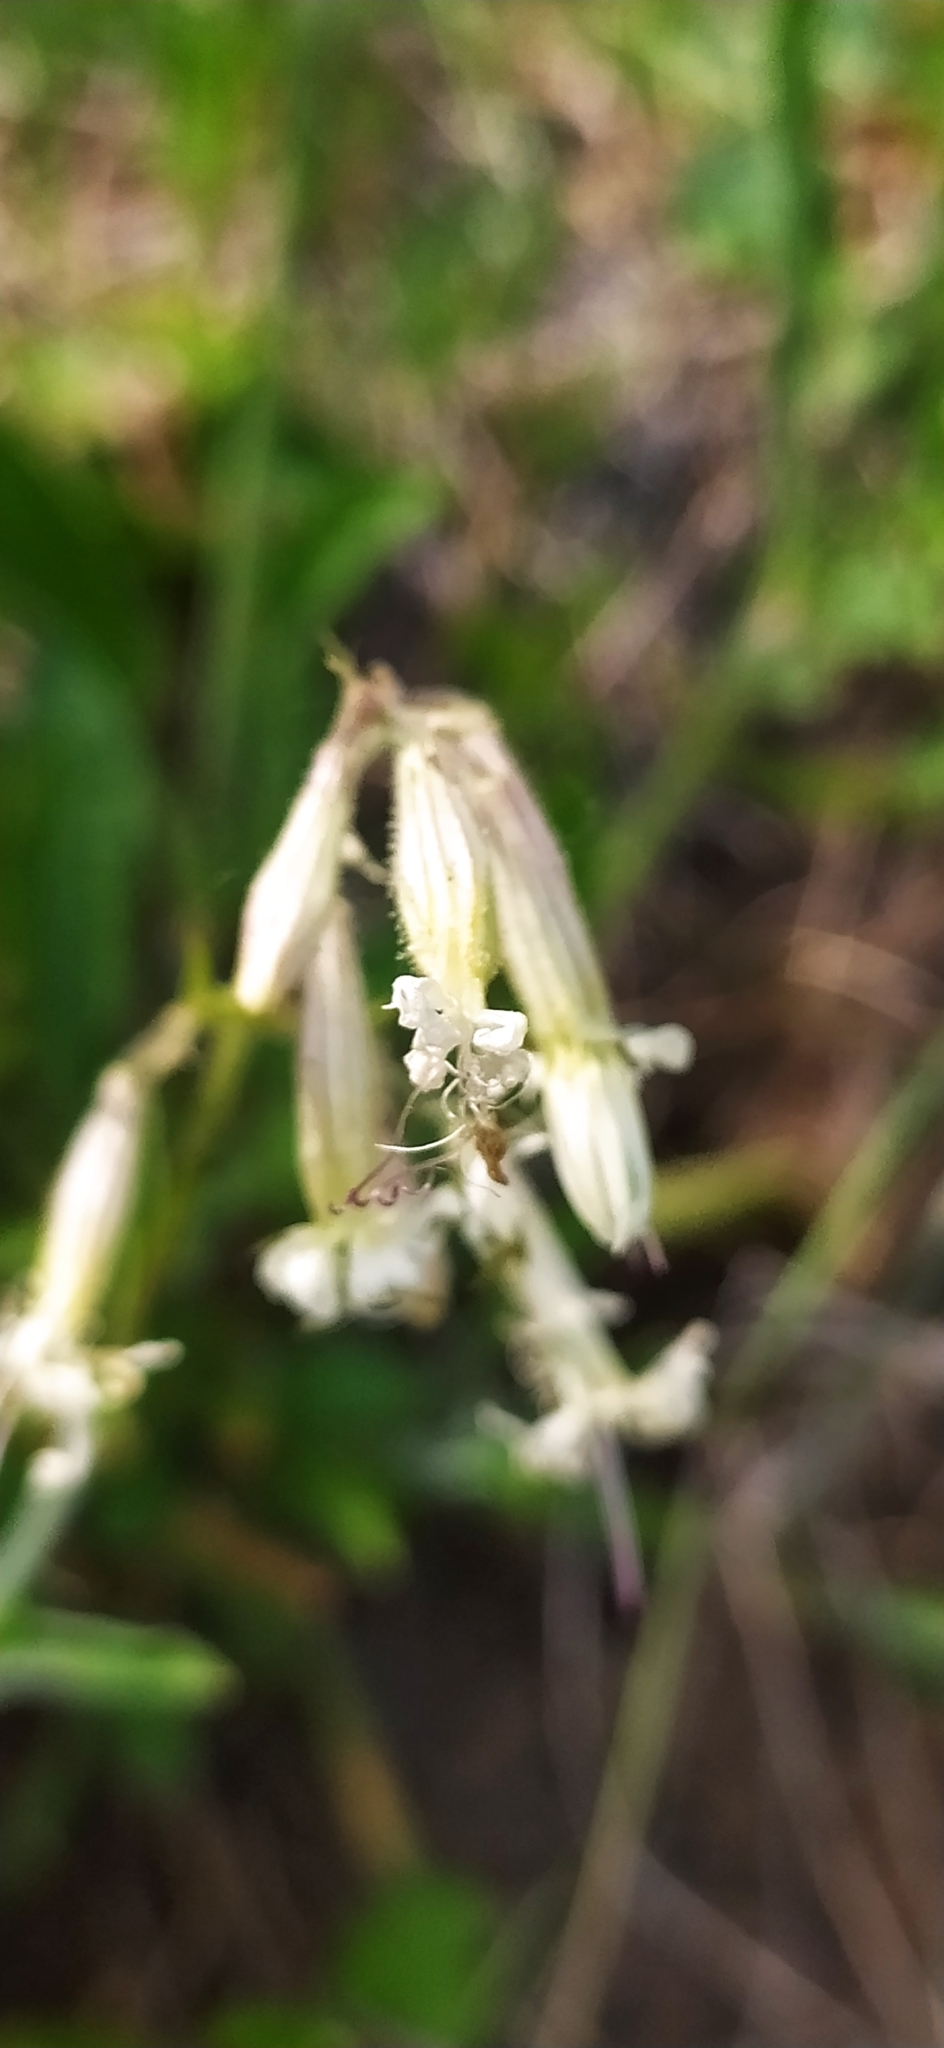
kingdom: Plantae
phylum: Tracheophyta
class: Magnoliopsida
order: Caryophyllales
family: Caryophyllaceae
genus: Silene
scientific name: Silene nutans
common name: Nottingham catchfly
